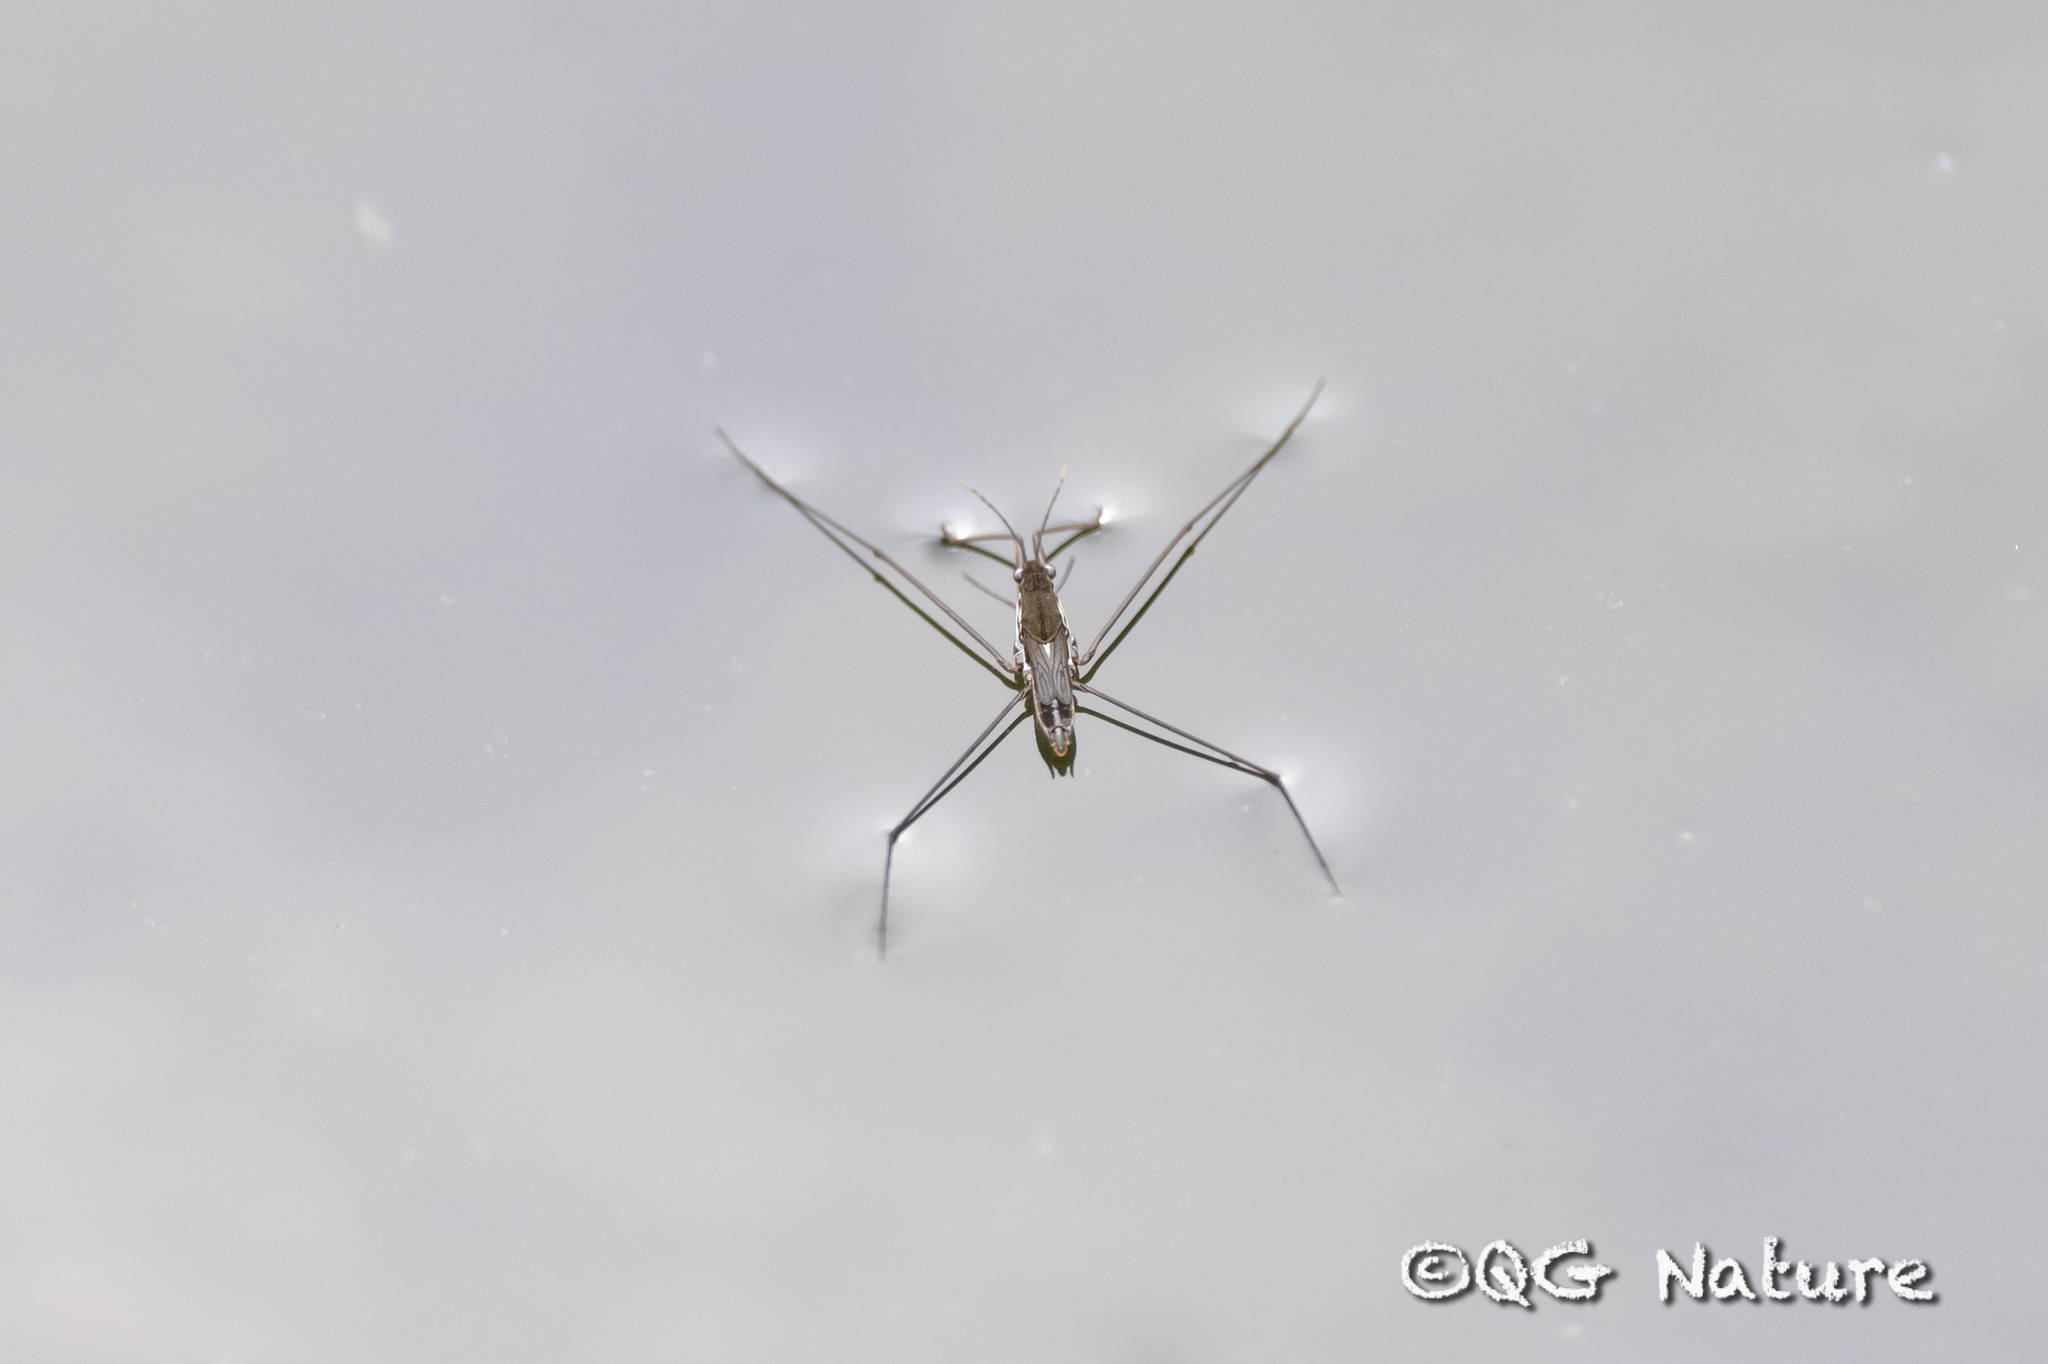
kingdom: Animalia
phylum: Arthropoda
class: Insecta
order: Hemiptera
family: Gerridae
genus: Aquarius
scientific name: Aquarius paludum
